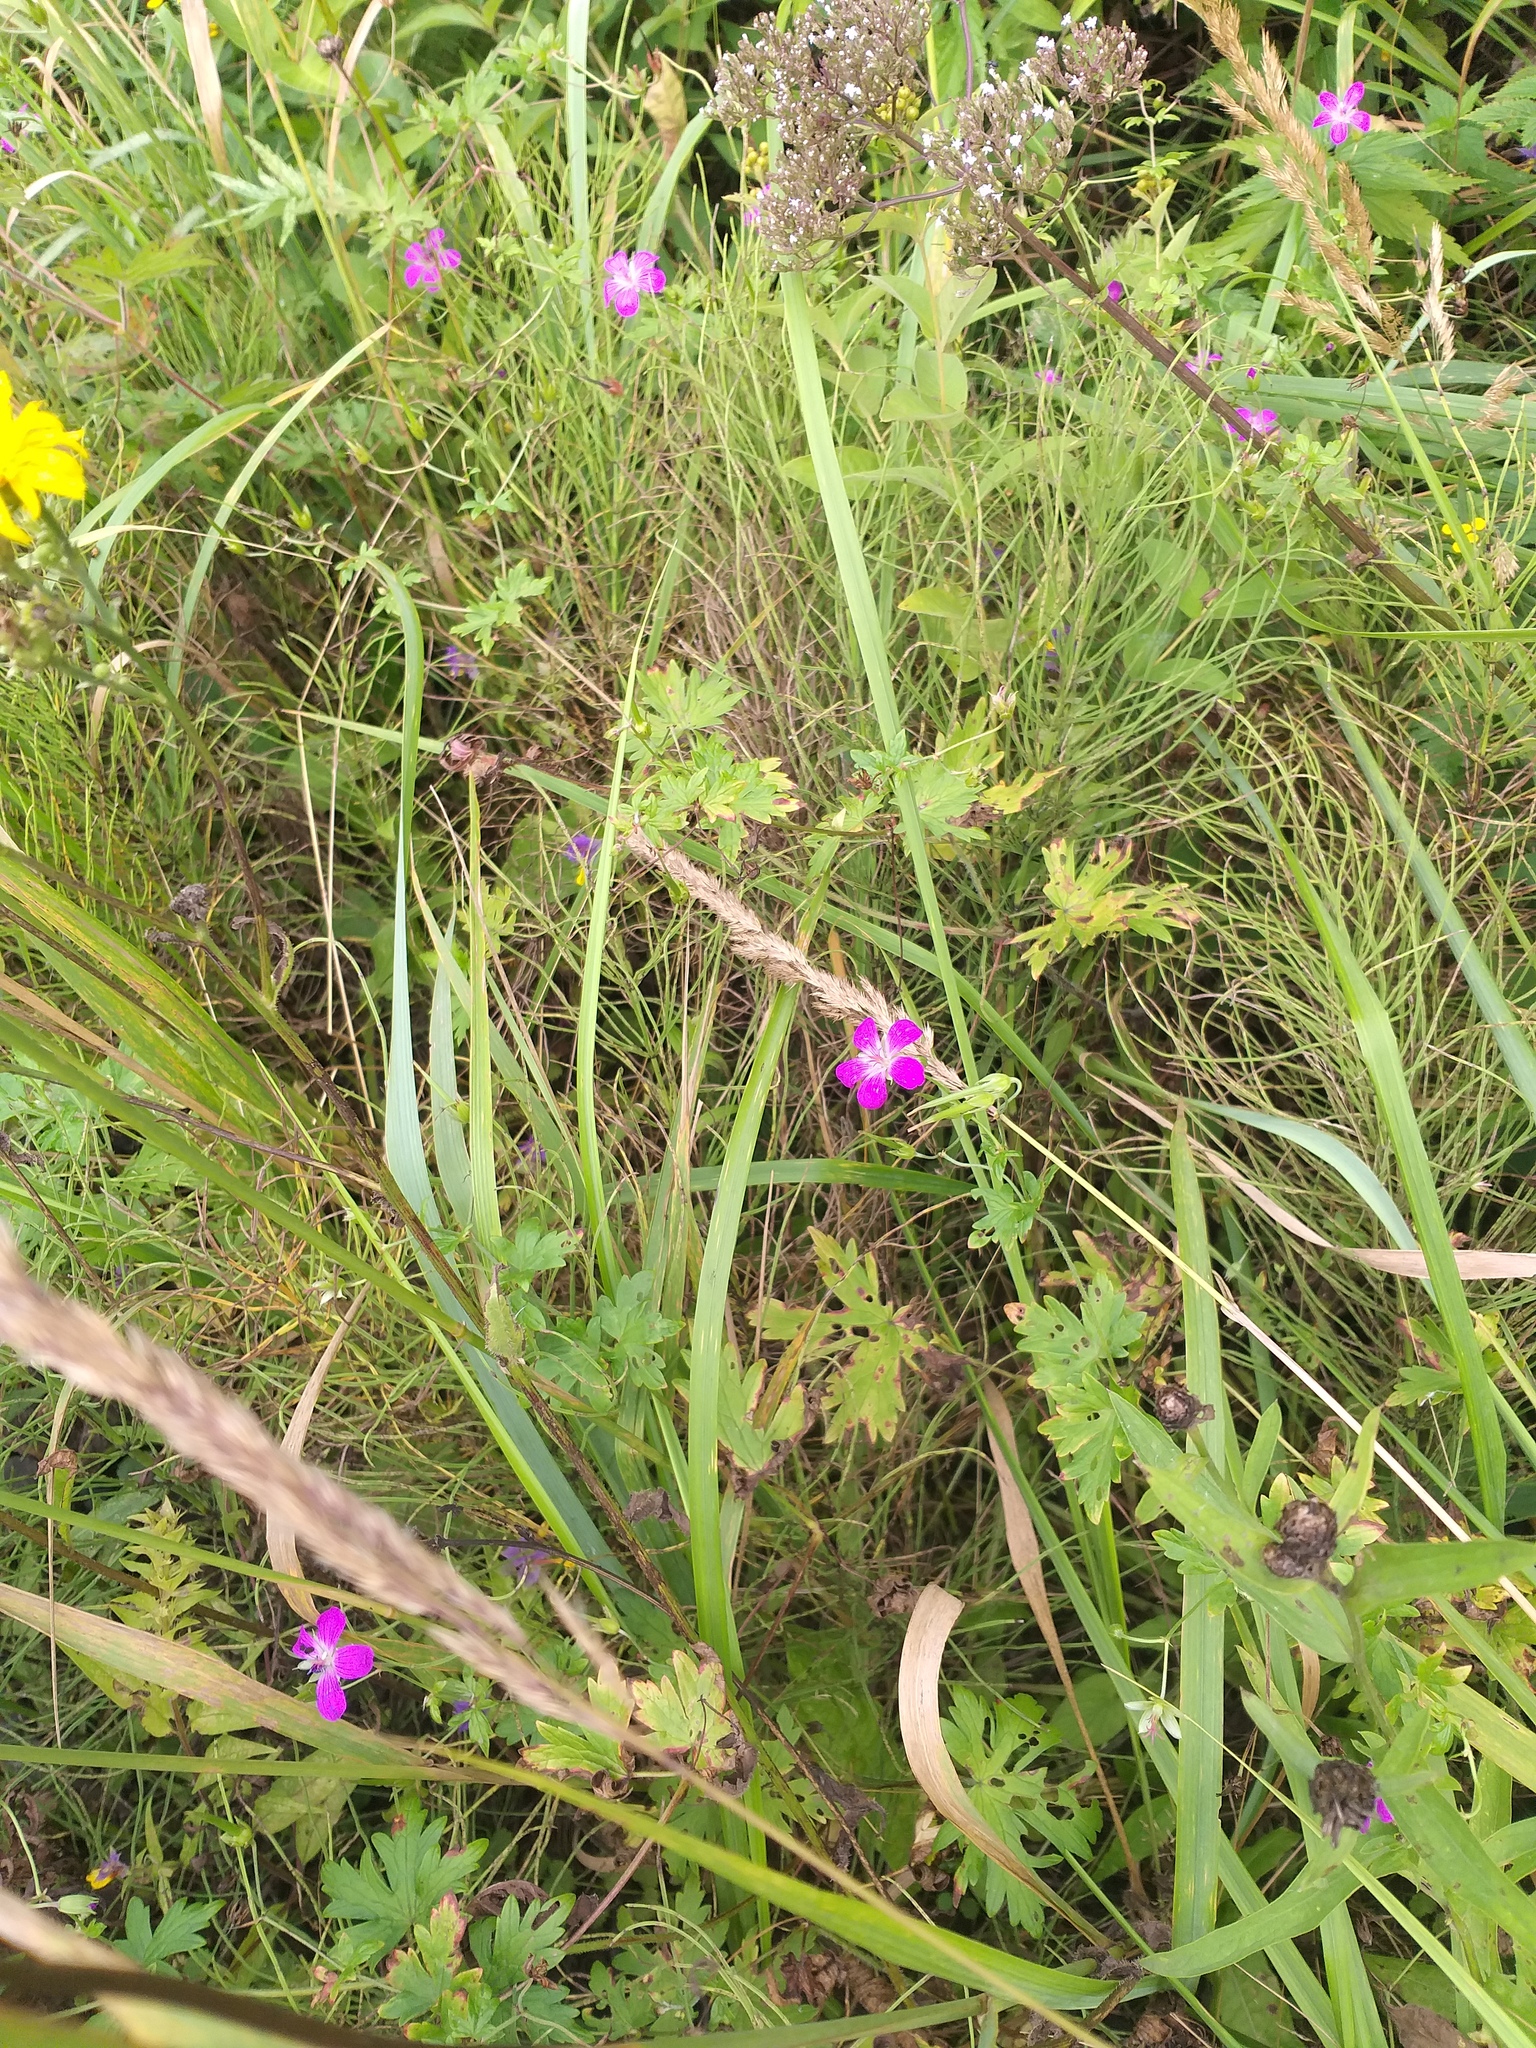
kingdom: Plantae
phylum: Tracheophyta
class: Magnoliopsida
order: Geraniales
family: Geraniaceae
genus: Geranium
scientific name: Geranium palustre
